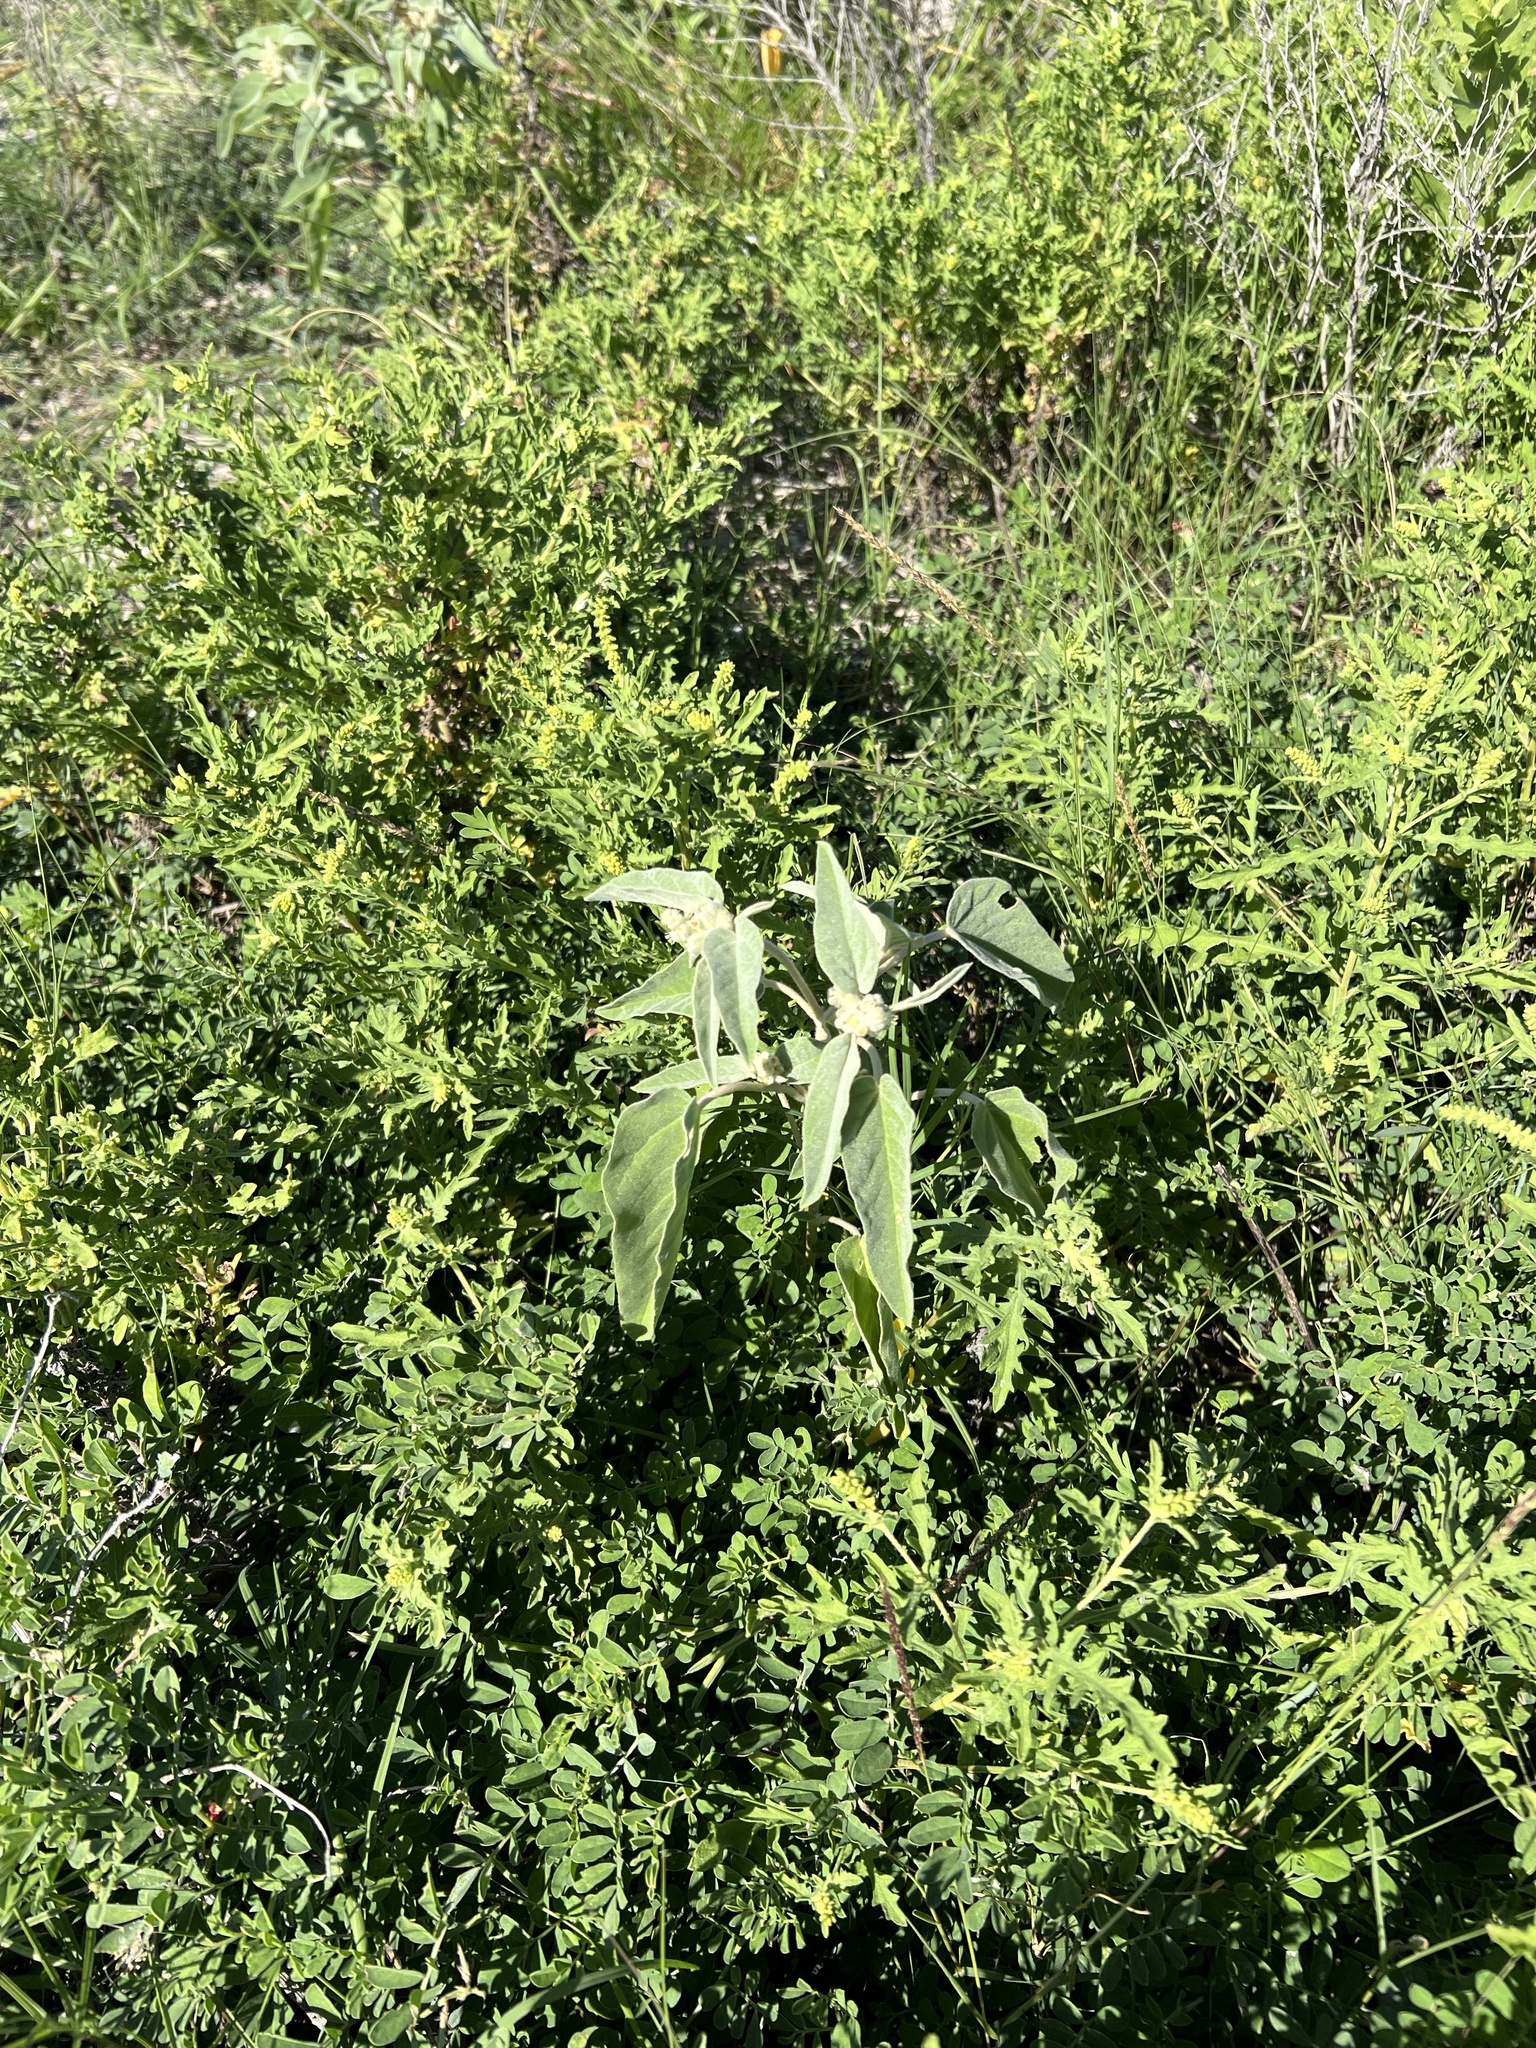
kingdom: Plantae
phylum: Tracheophyta
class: Magnoliopsida
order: Malpighiales
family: Euphorbiaceae
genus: Croton
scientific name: Croton lindheimeri
